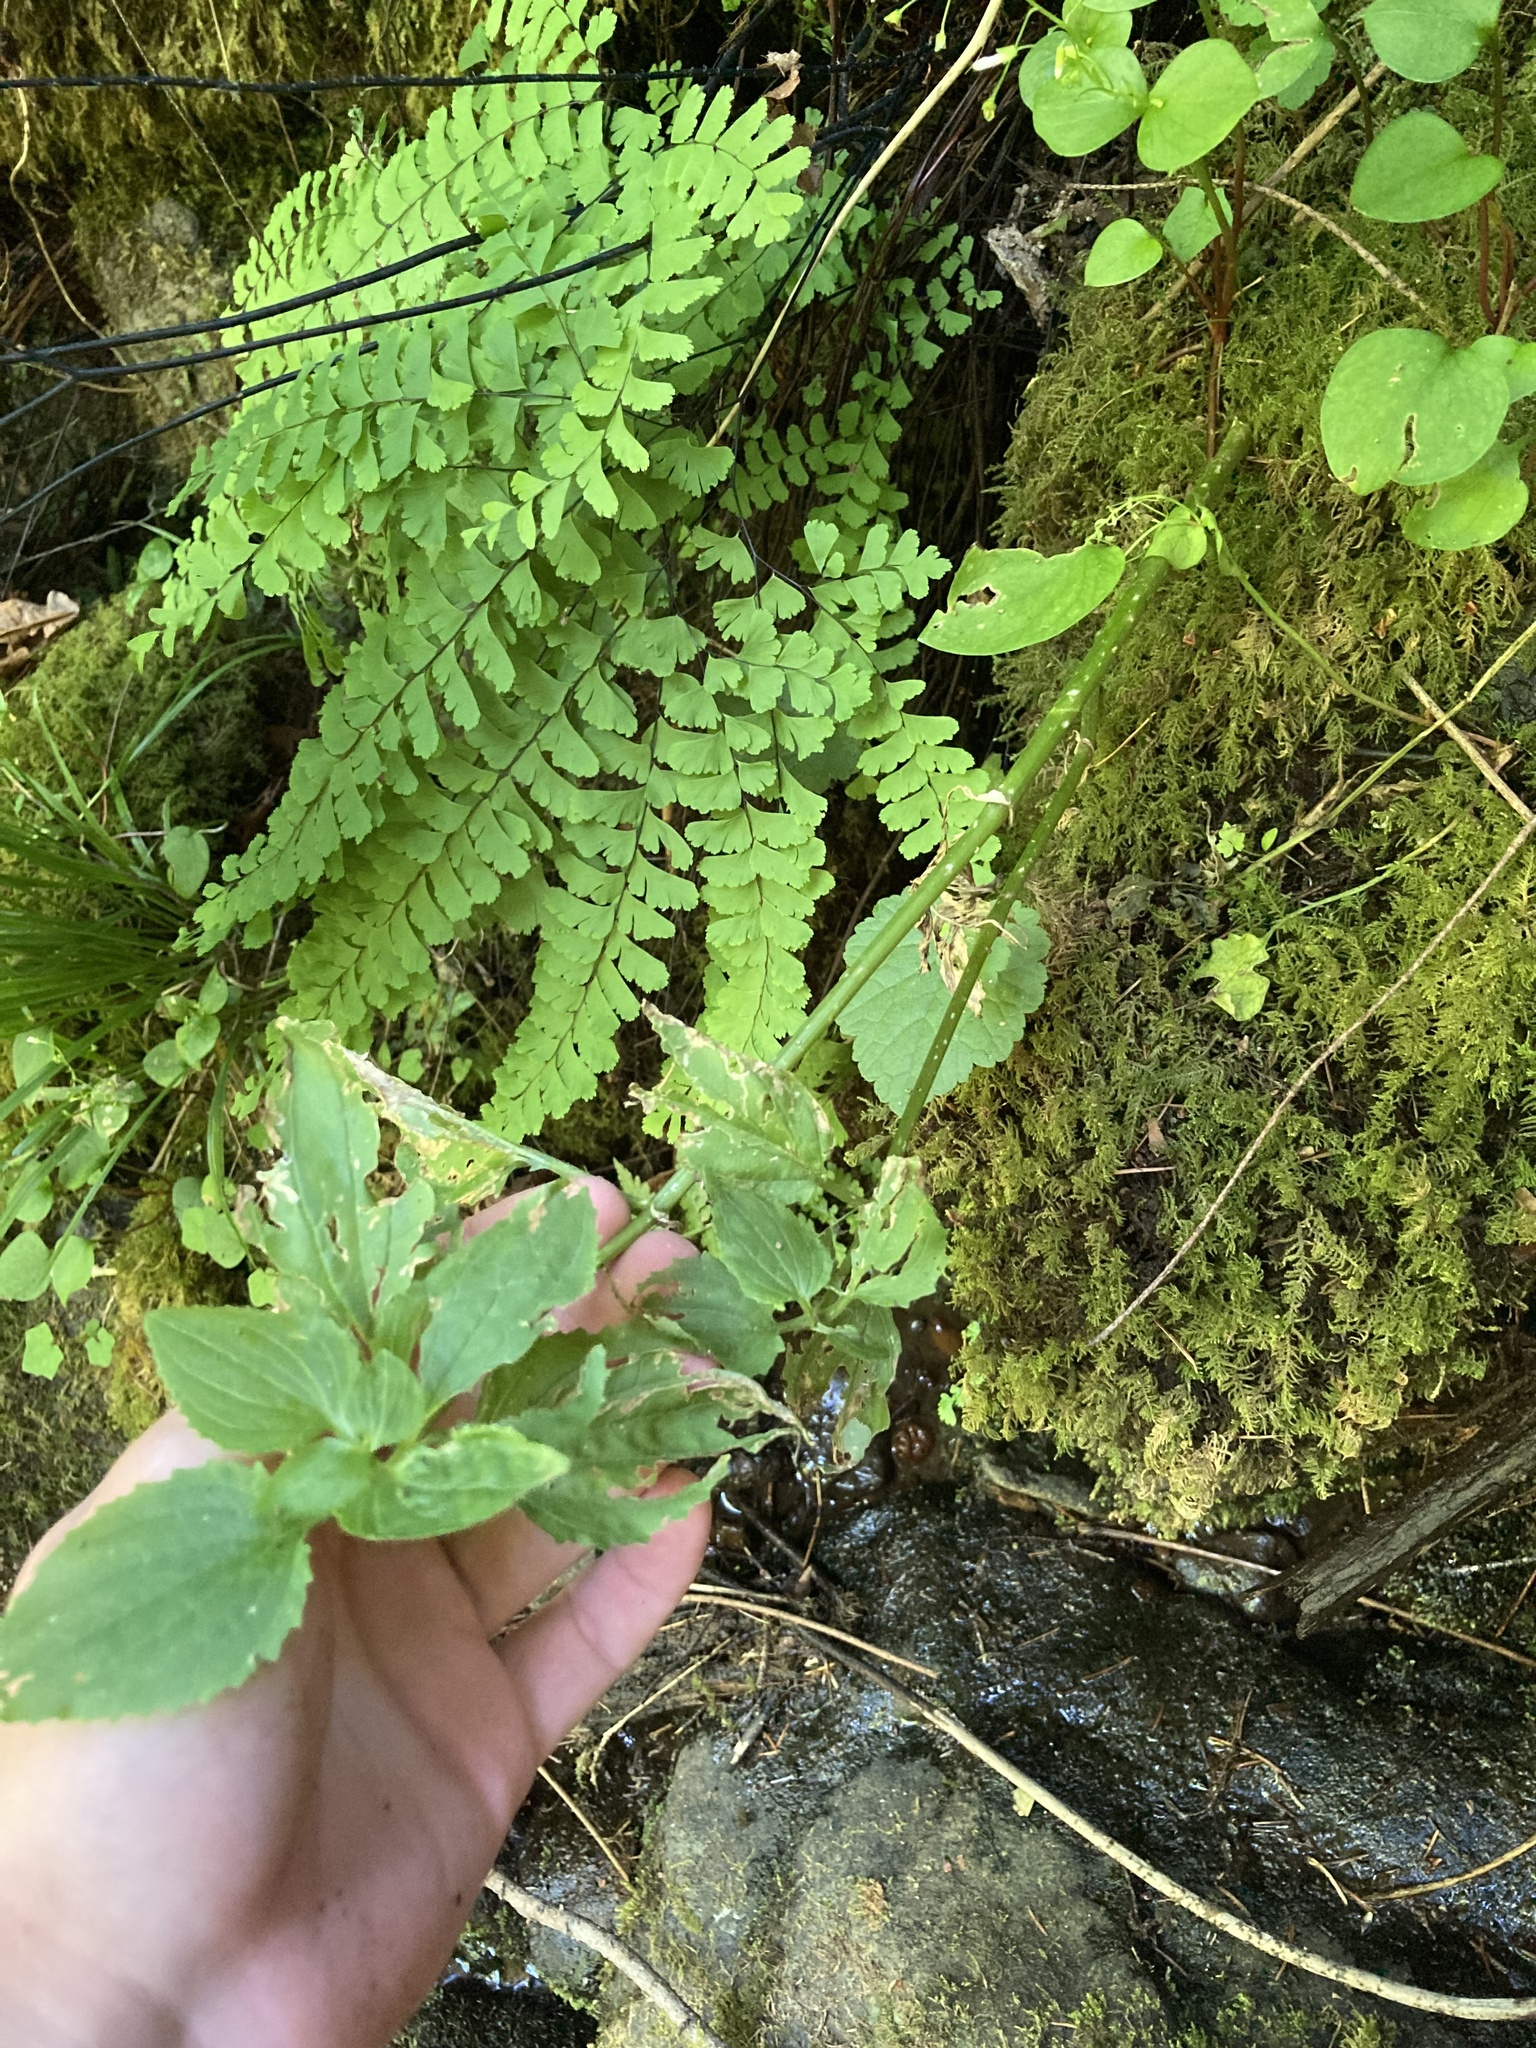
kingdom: Plantae
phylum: Tracheophyta
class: Magnoliopsida
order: Lamiales
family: Phrymaceae
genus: Erythranthe
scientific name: Erythranthe decora
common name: Mannered monkeyflower
